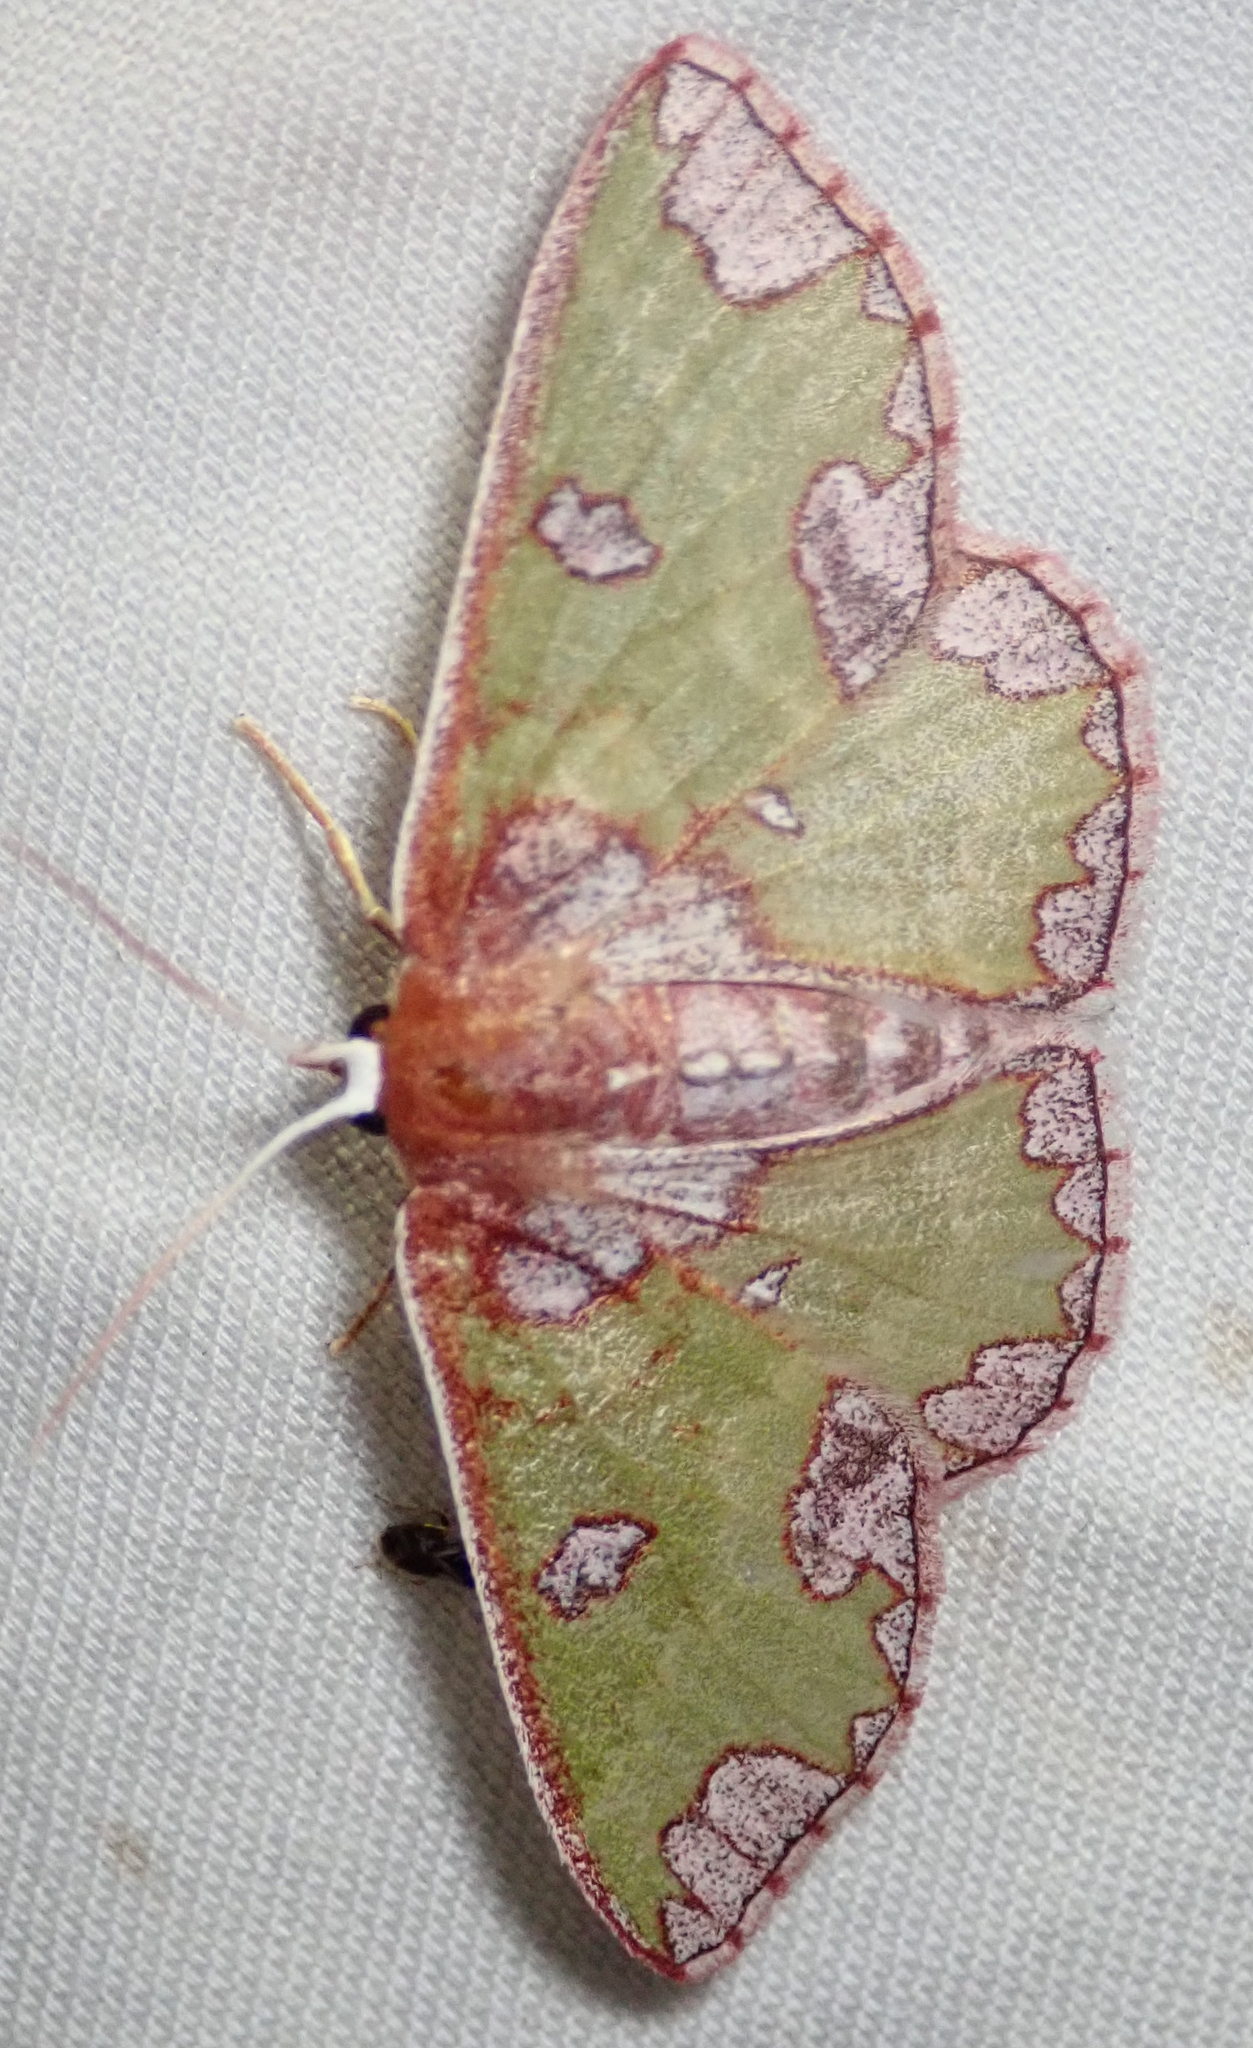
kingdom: Animalia
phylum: Arthropoda
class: Insecta
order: Lepidoptera
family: Geometridae
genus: Oneiliana
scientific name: Oneiliana multifera
